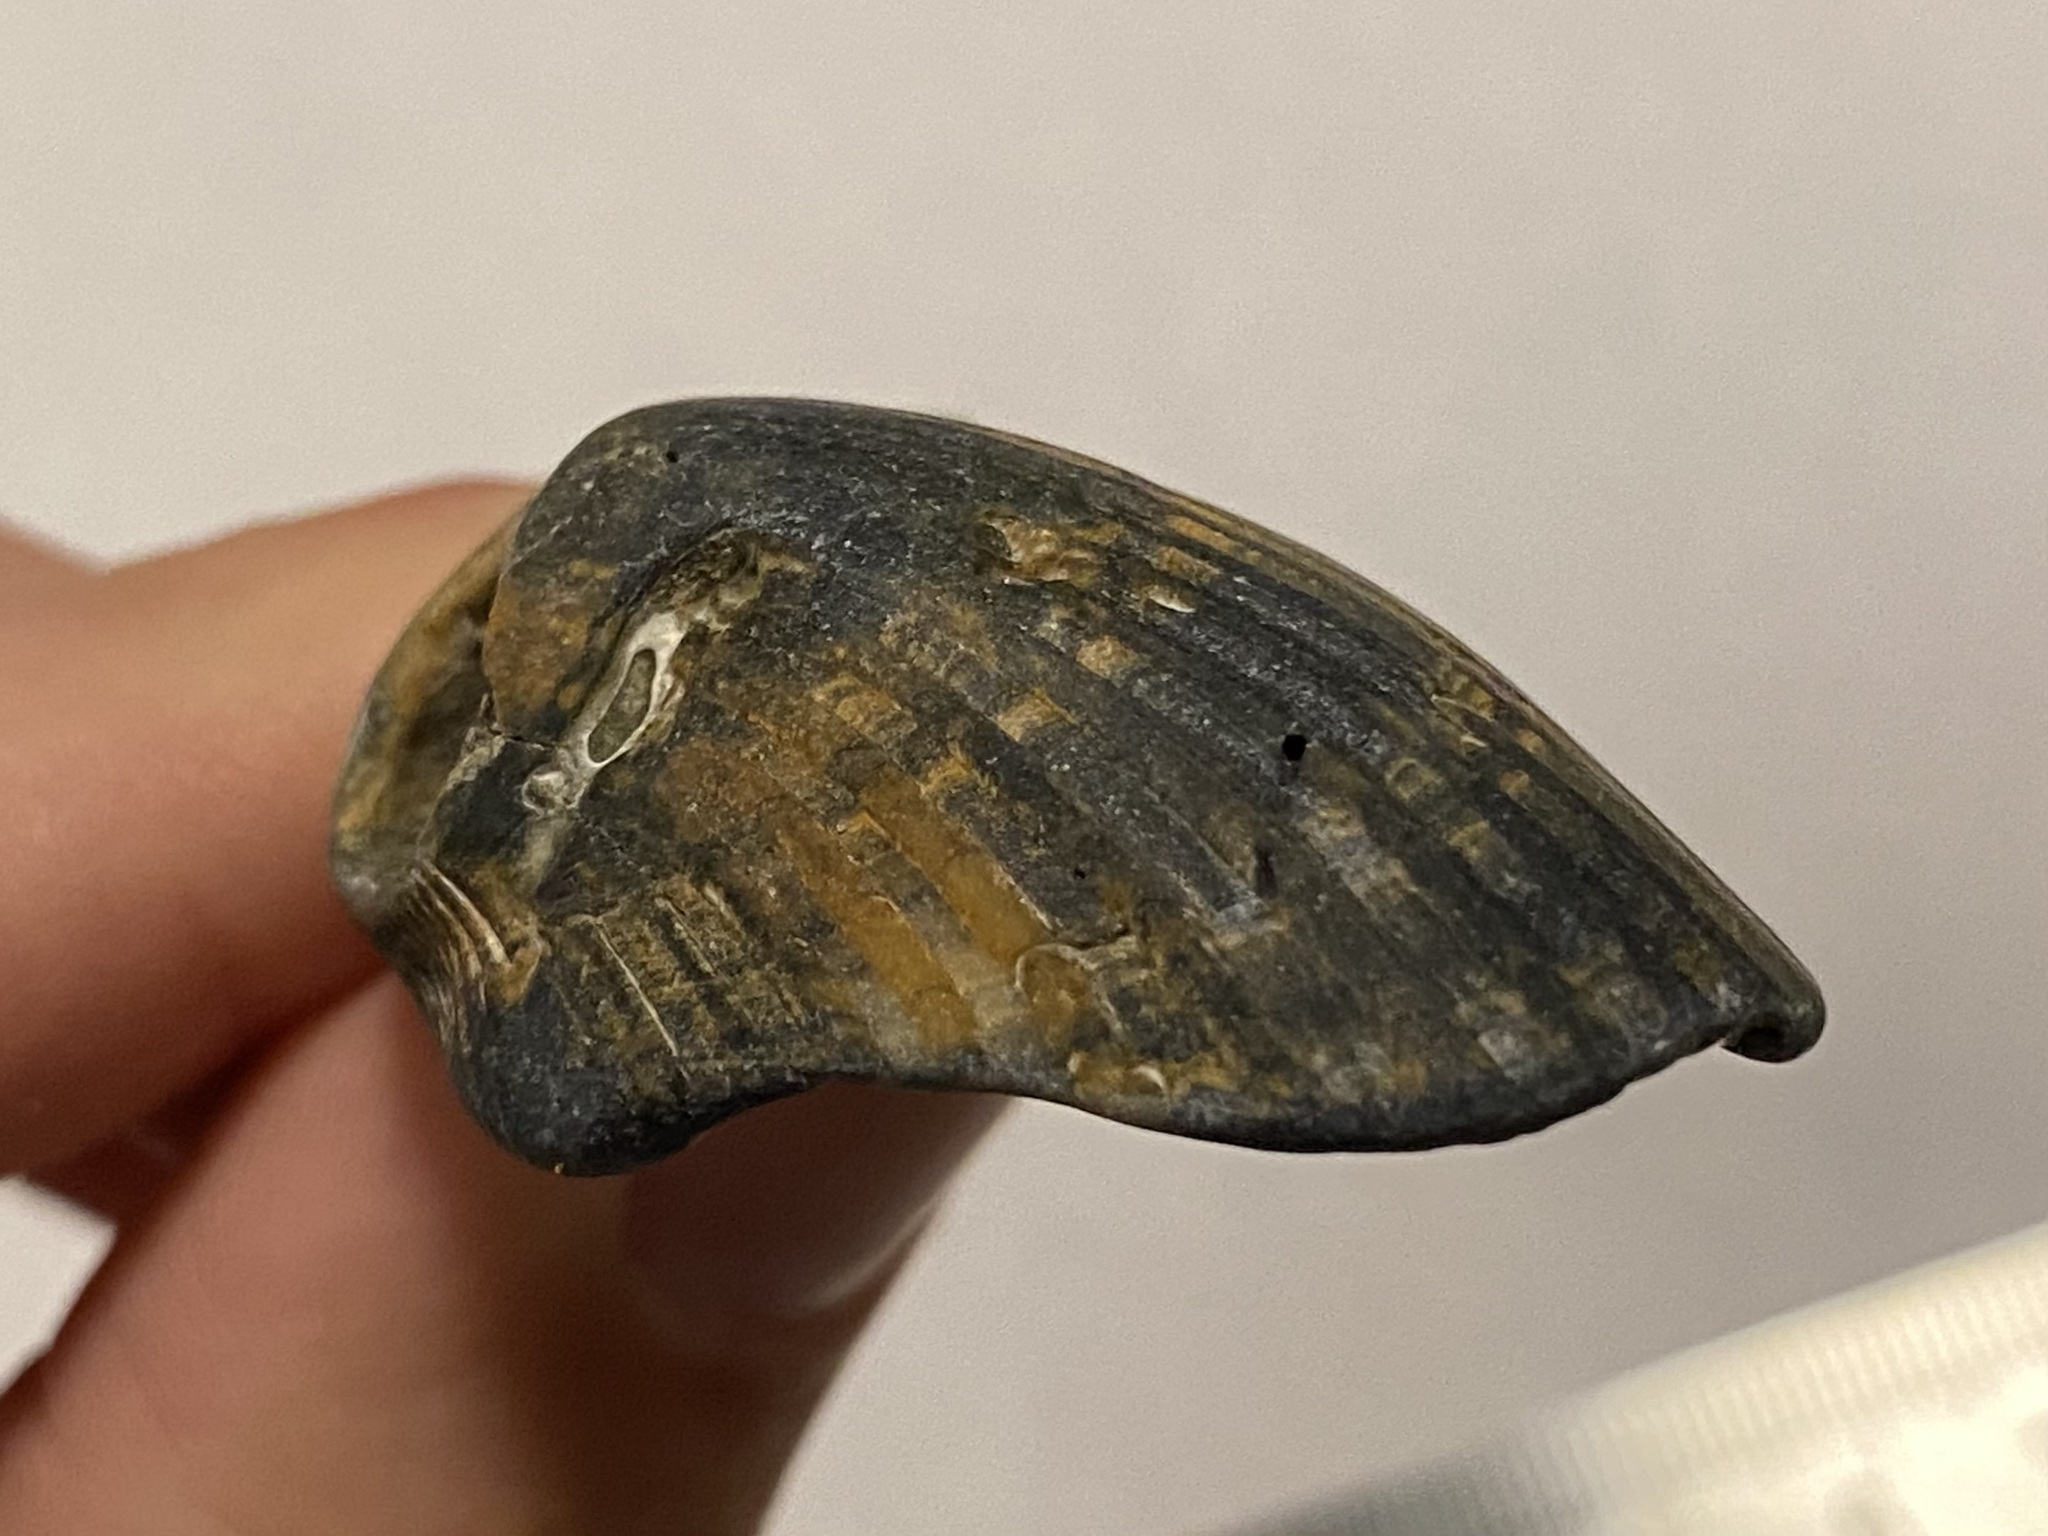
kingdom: Animalia
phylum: Mollusca
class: Bivalvia
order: Arcida
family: Noetiidae
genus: Noetia
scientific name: Noetia ponderosa
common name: Ponderous ark
